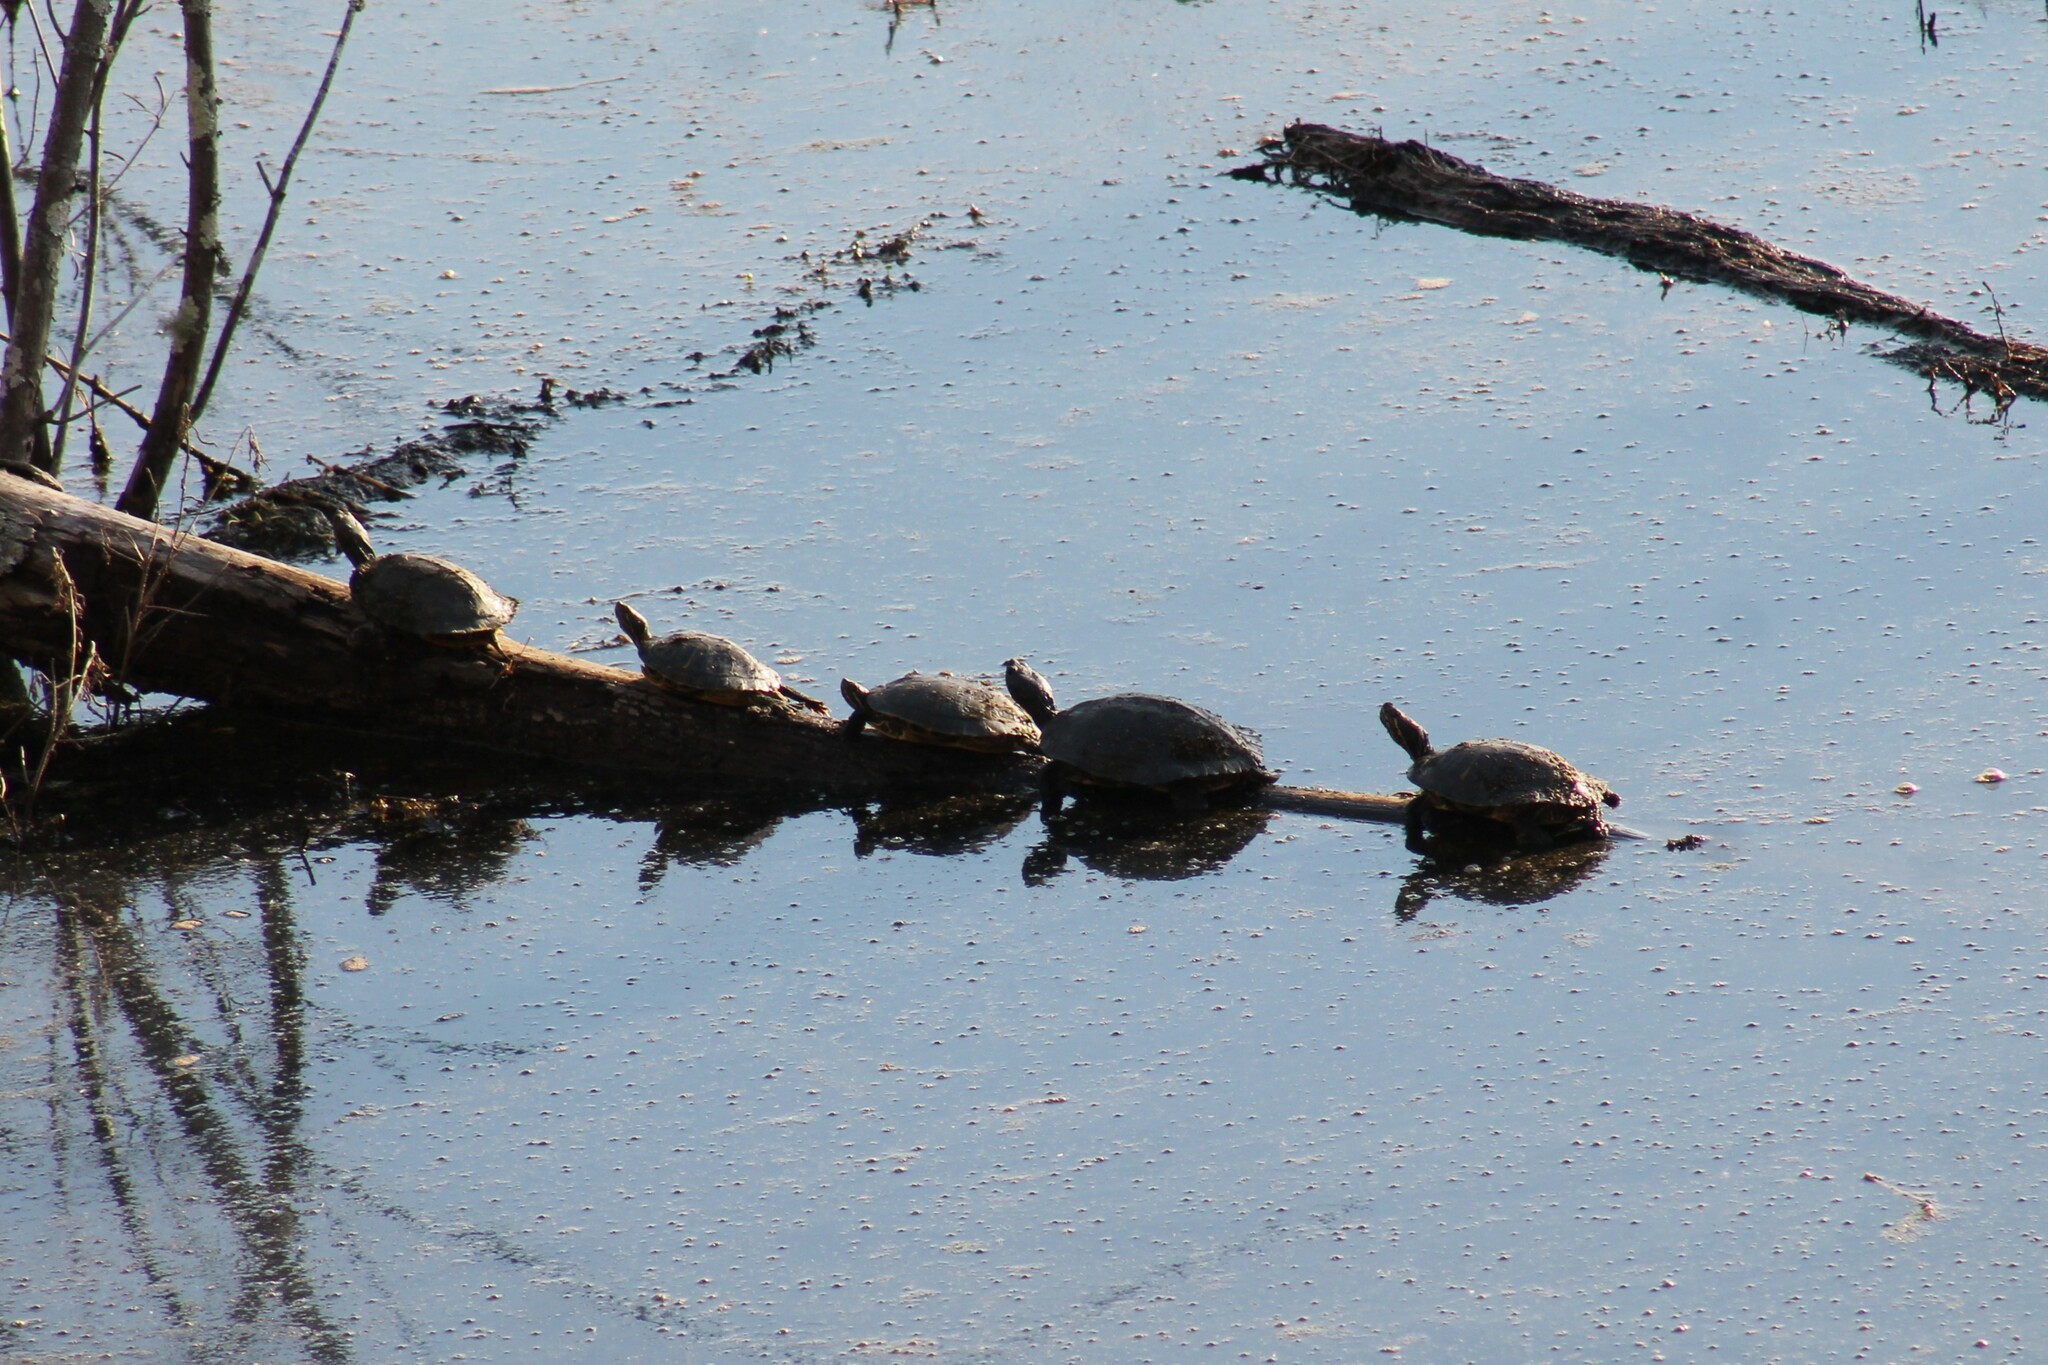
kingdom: Animalia
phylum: Chordata
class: Testudines
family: Emydidae
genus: Trachemys
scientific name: Trachemys scripta
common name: Slider
